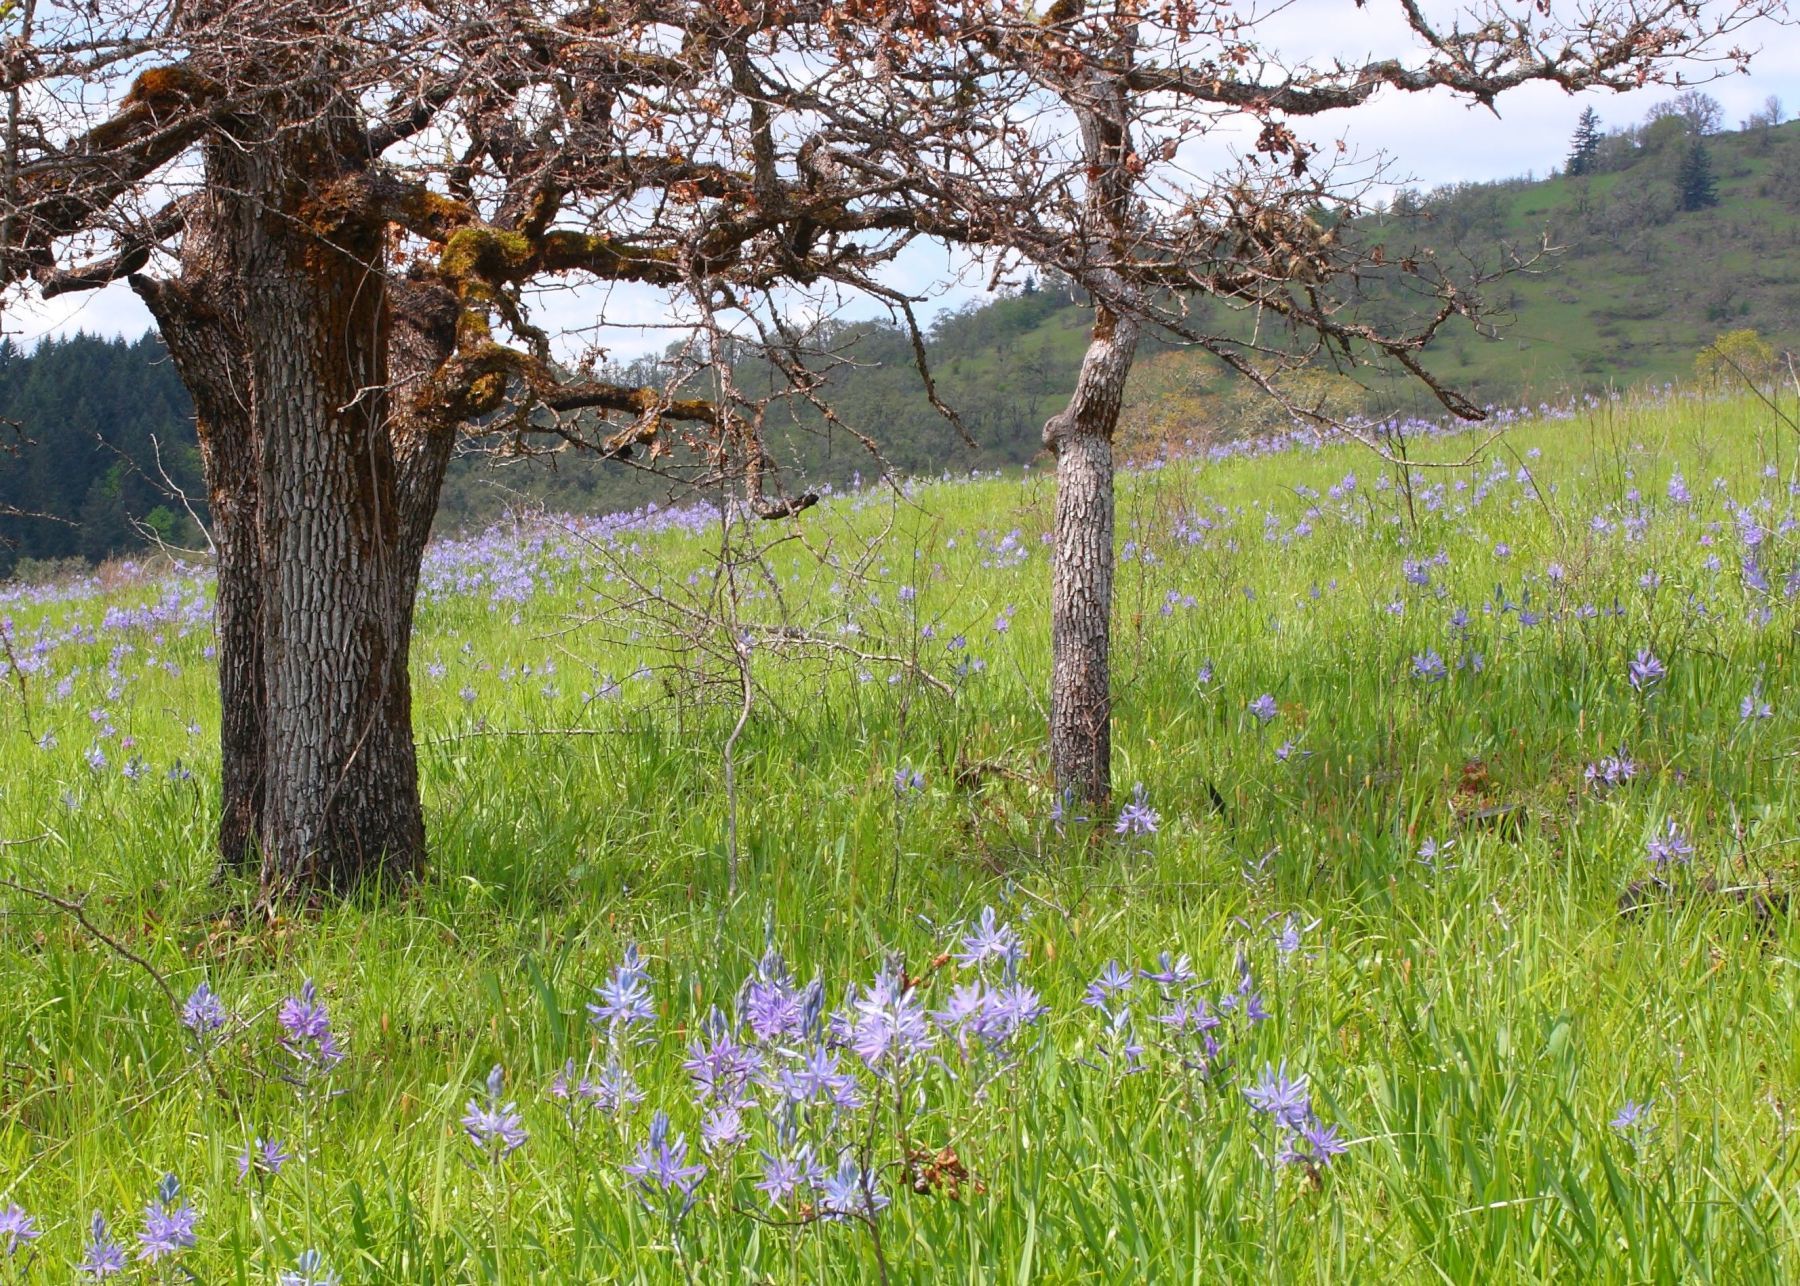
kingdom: Plantae
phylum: Tracheophyta
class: Magnoliopsida
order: Fagales
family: Fagaceae
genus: Quercus
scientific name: Quercus garryana
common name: Garry oak
